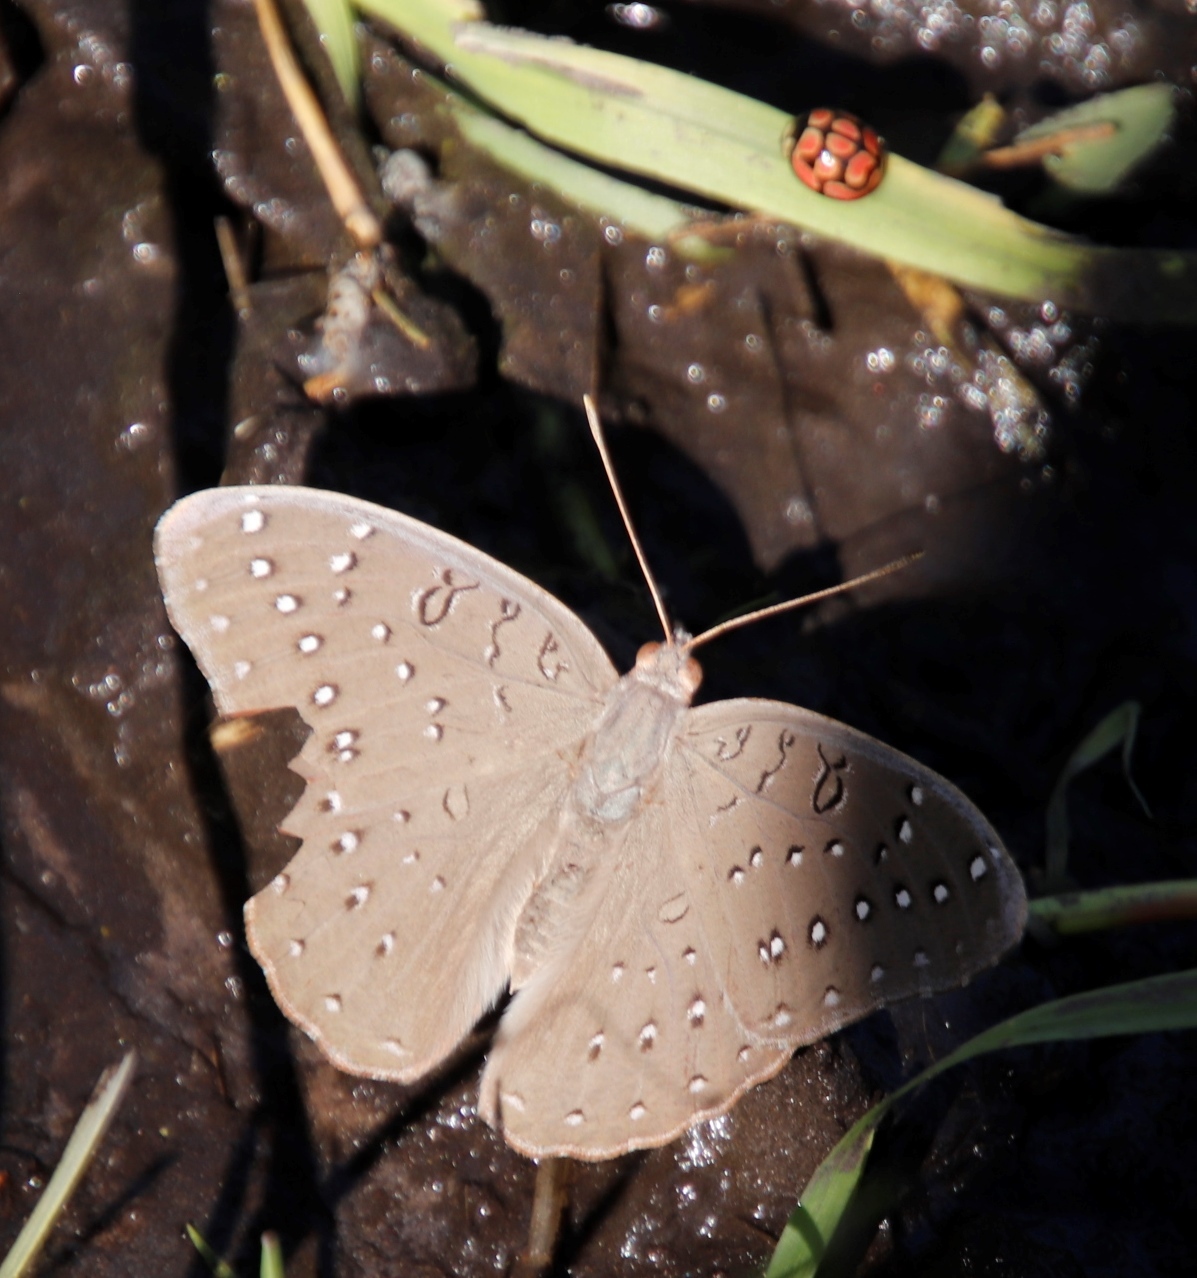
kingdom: Animalia
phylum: Arthropoda
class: Insecta
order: Lepidoptera
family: Nymphalidae
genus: Hamanumida
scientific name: Hamanumida daedalus
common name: Guinea-fowl butterfly
